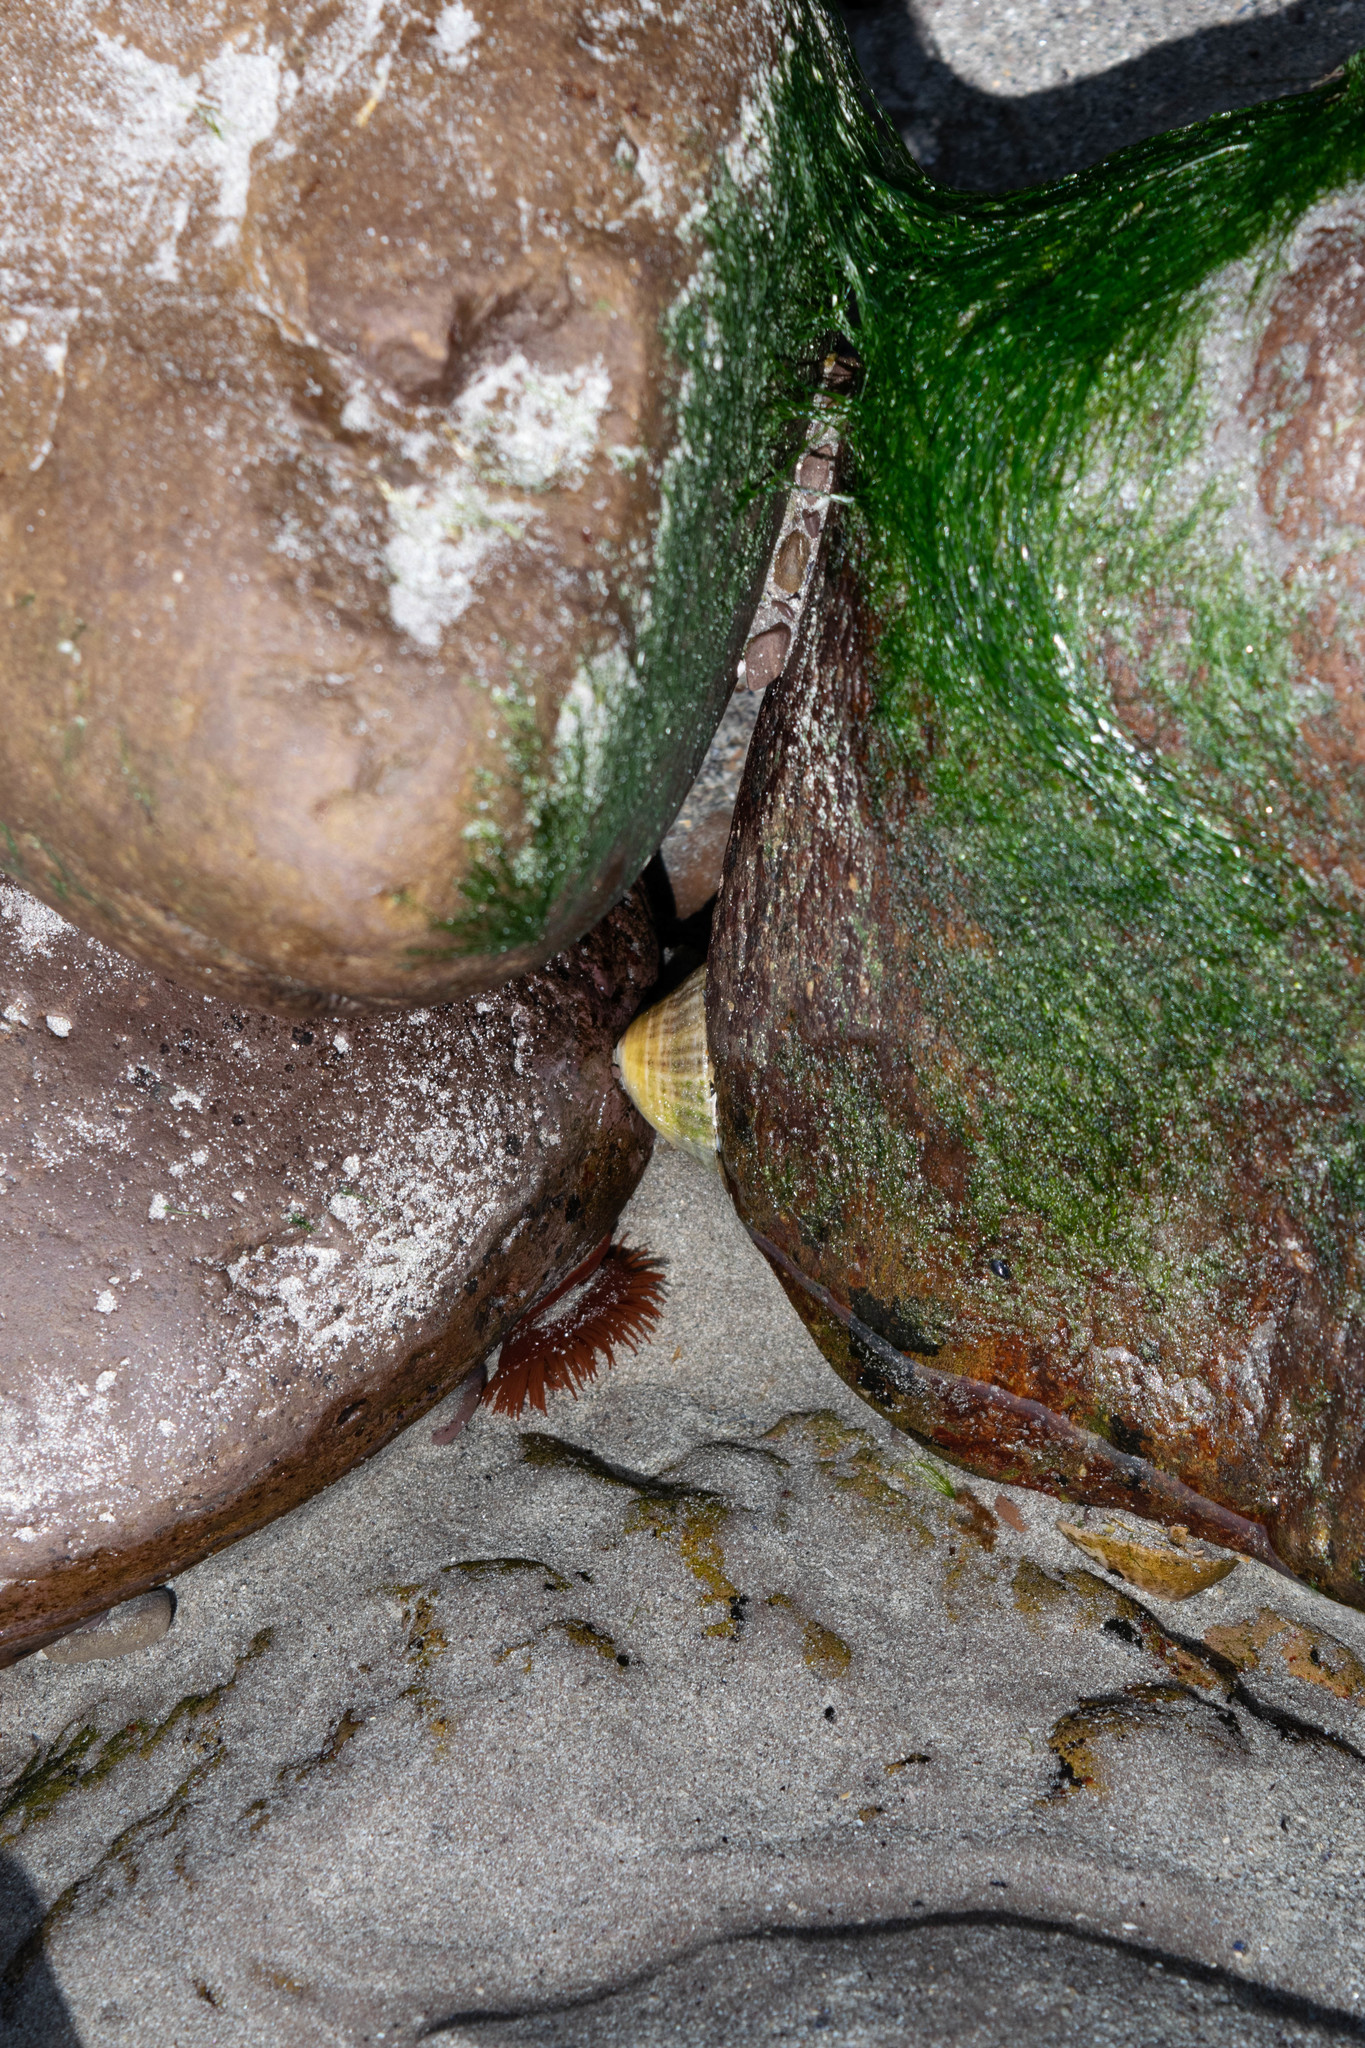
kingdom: Animalia
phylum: Cnidaria
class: Anthozoa
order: Actiniaria
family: Actiniidae
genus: Actinia
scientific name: Actinia equina
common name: Beadlet anemone
